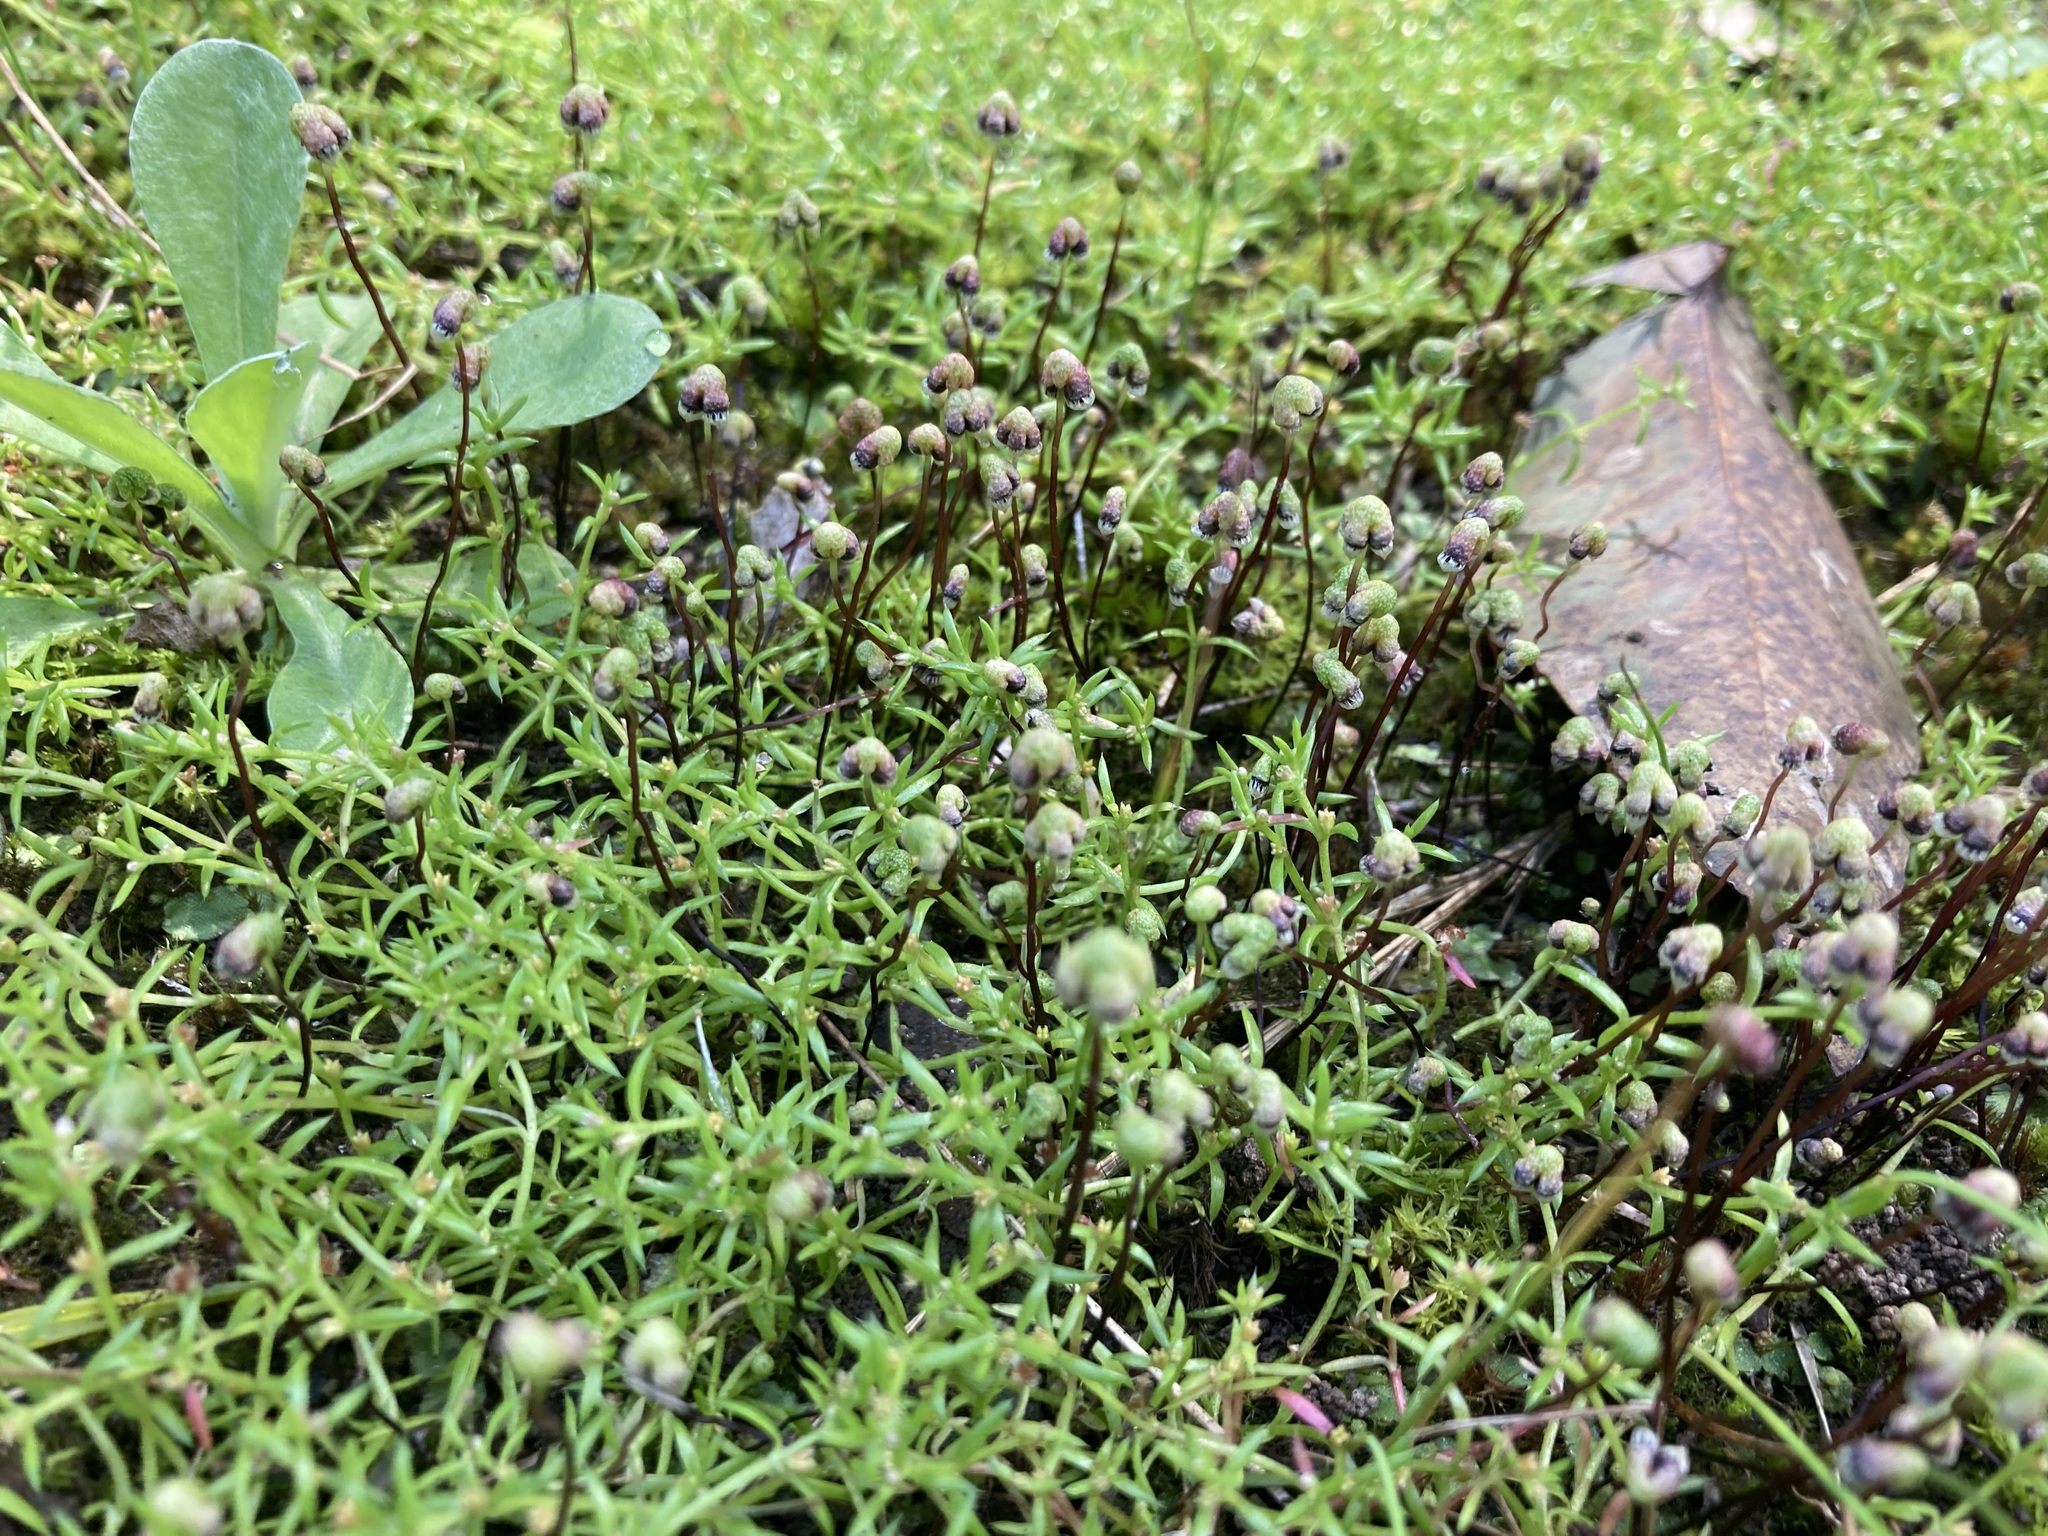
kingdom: Plantae
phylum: Marchantiophyta
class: Marchantiopsida
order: Marchantiales
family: Aytoniaceae
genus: Asterella
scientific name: Asterella drummondii
